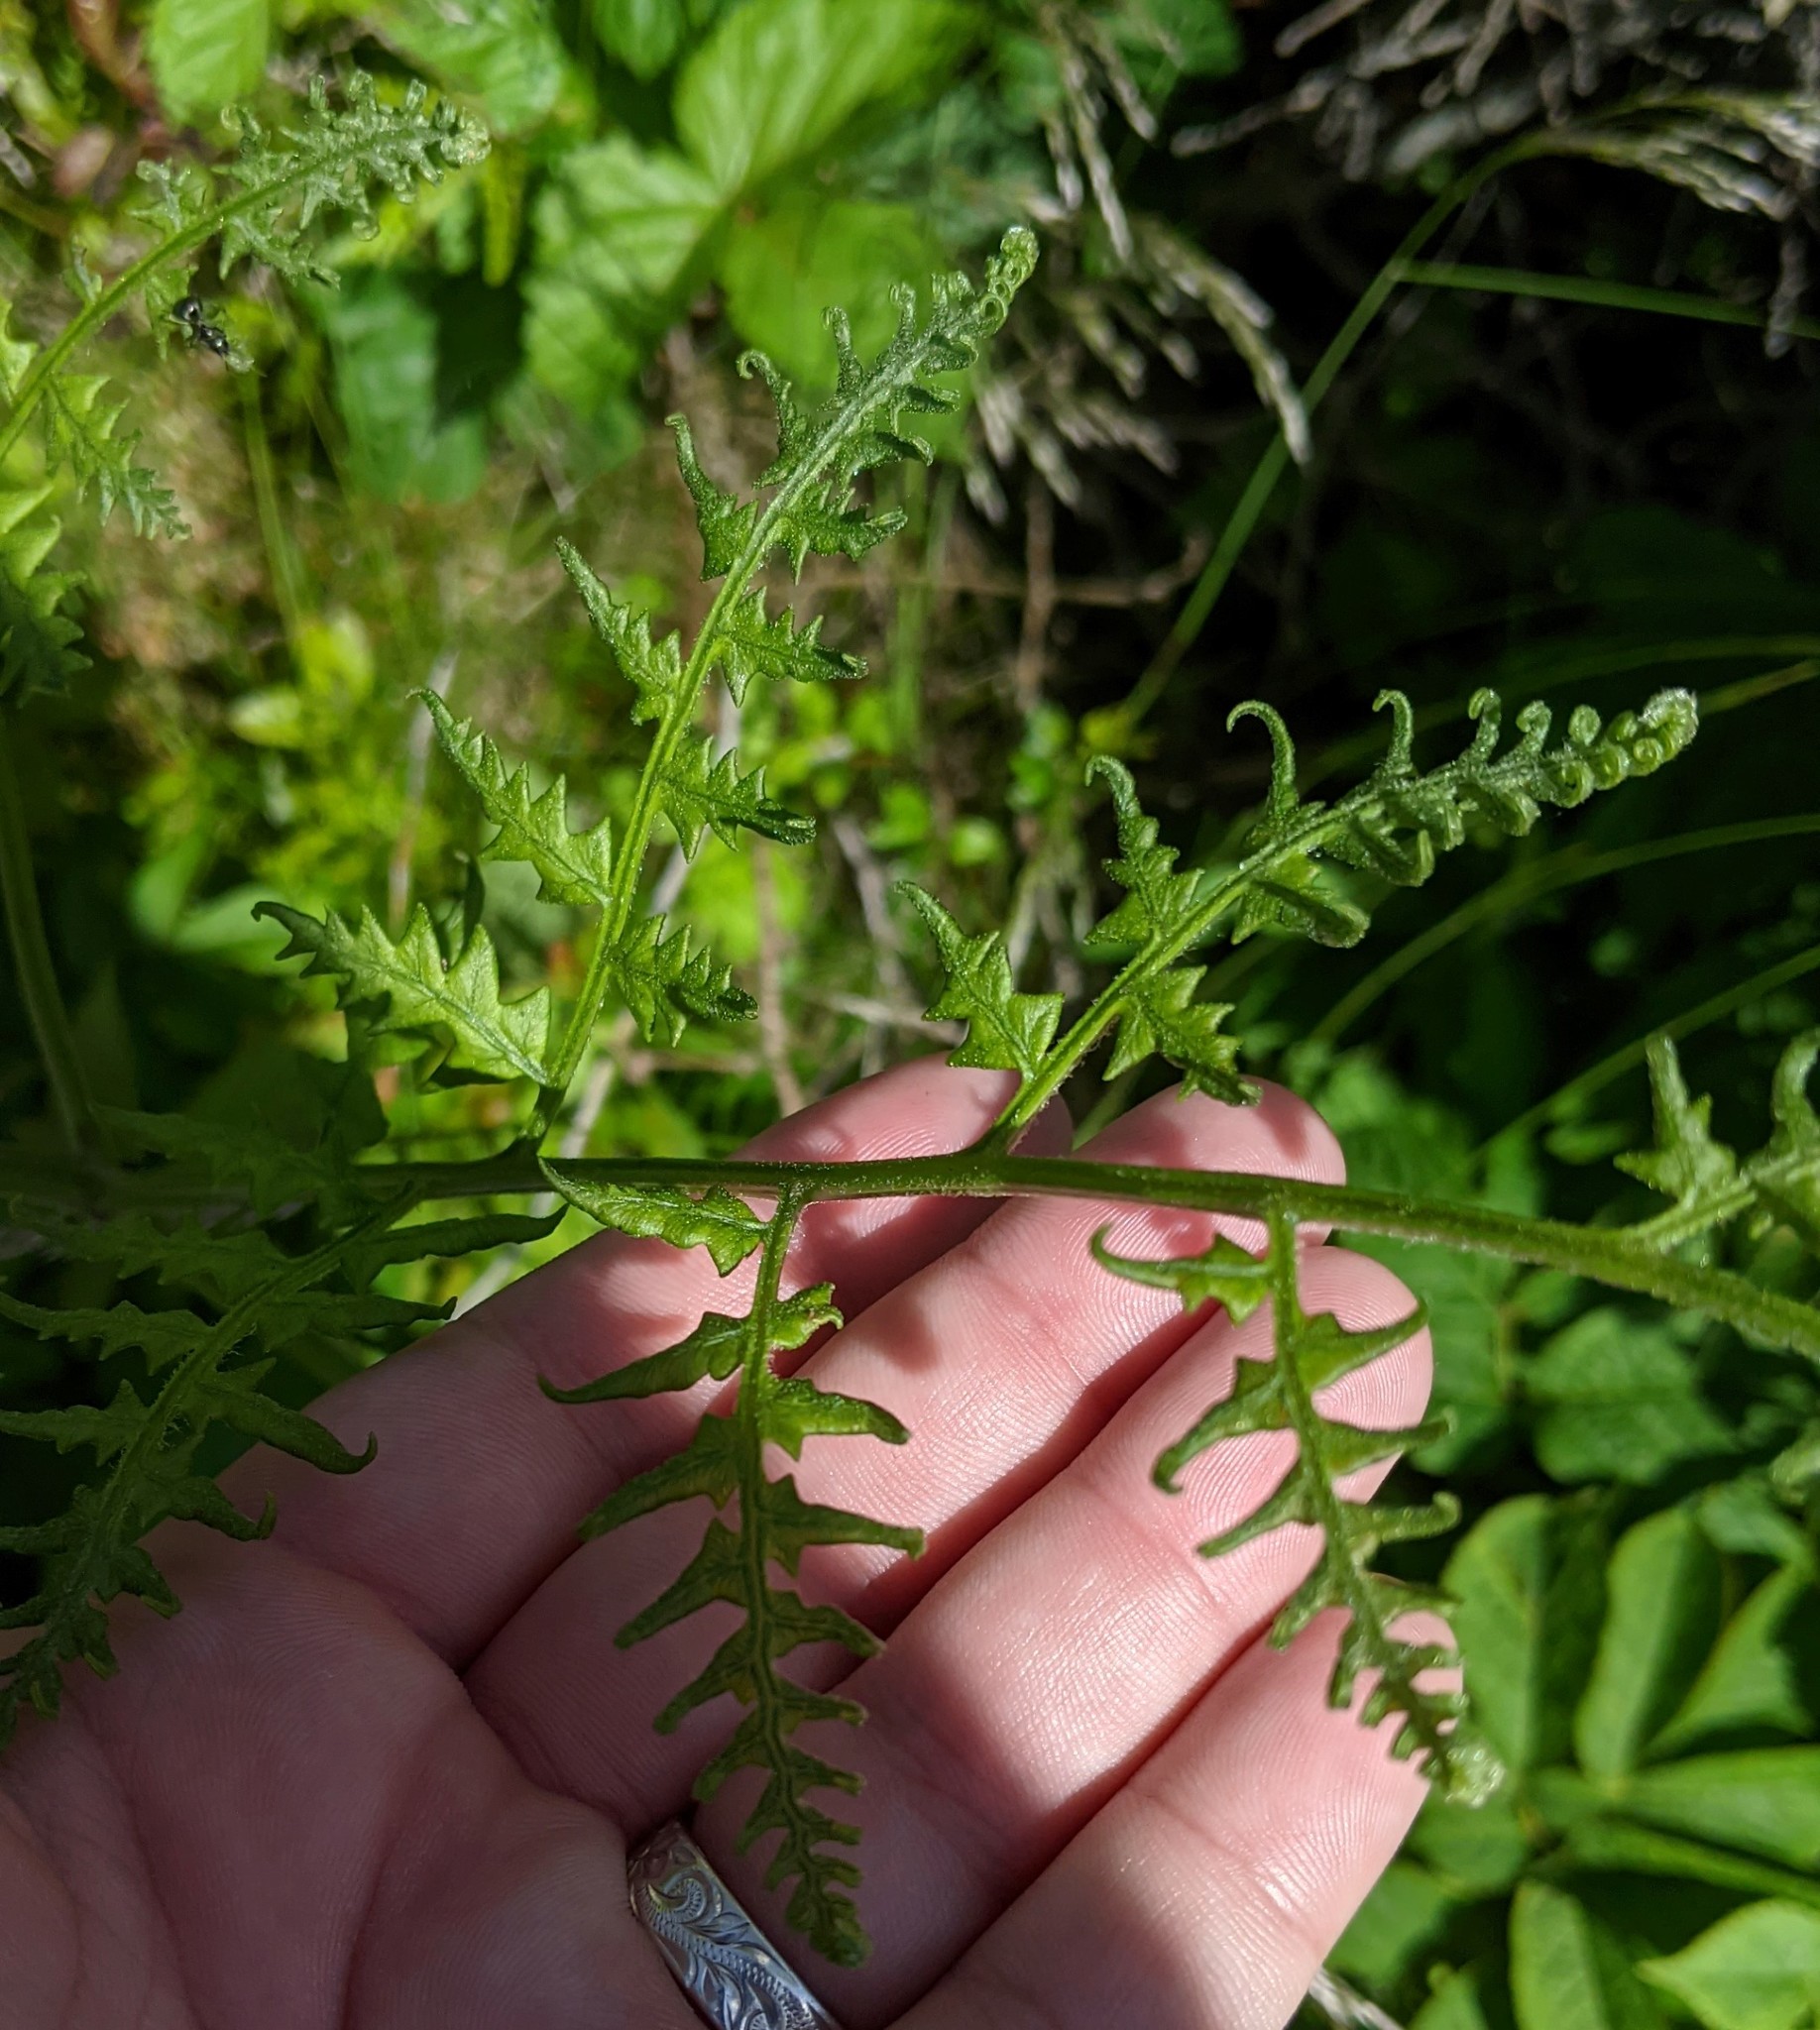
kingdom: Plantae
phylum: Tracheophyta
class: Polypodiopsida
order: Polypodiales
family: Dennstaedtiaceae
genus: Pteridium
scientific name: Pteridium aquilinum
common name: Bracken
